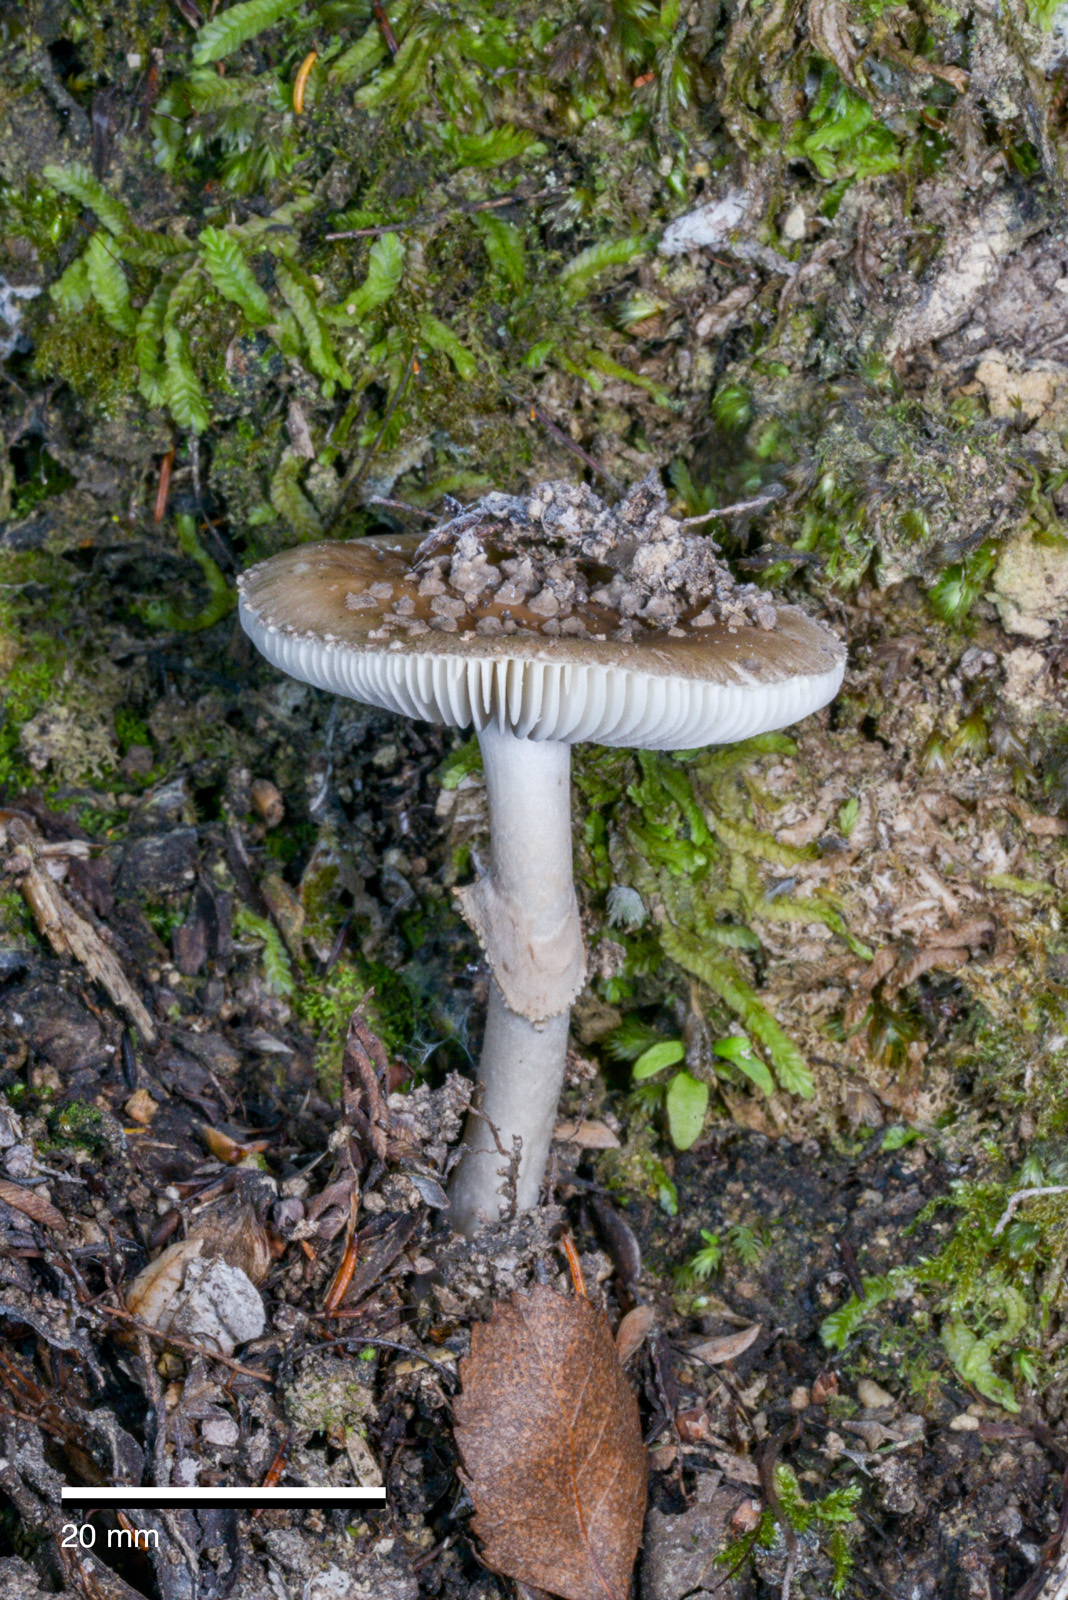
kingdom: Fungi
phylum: Basidiomycota
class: Agaricomycetes
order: Agaricales
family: Amanitaceae
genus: Amanita
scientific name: Amanita australis
